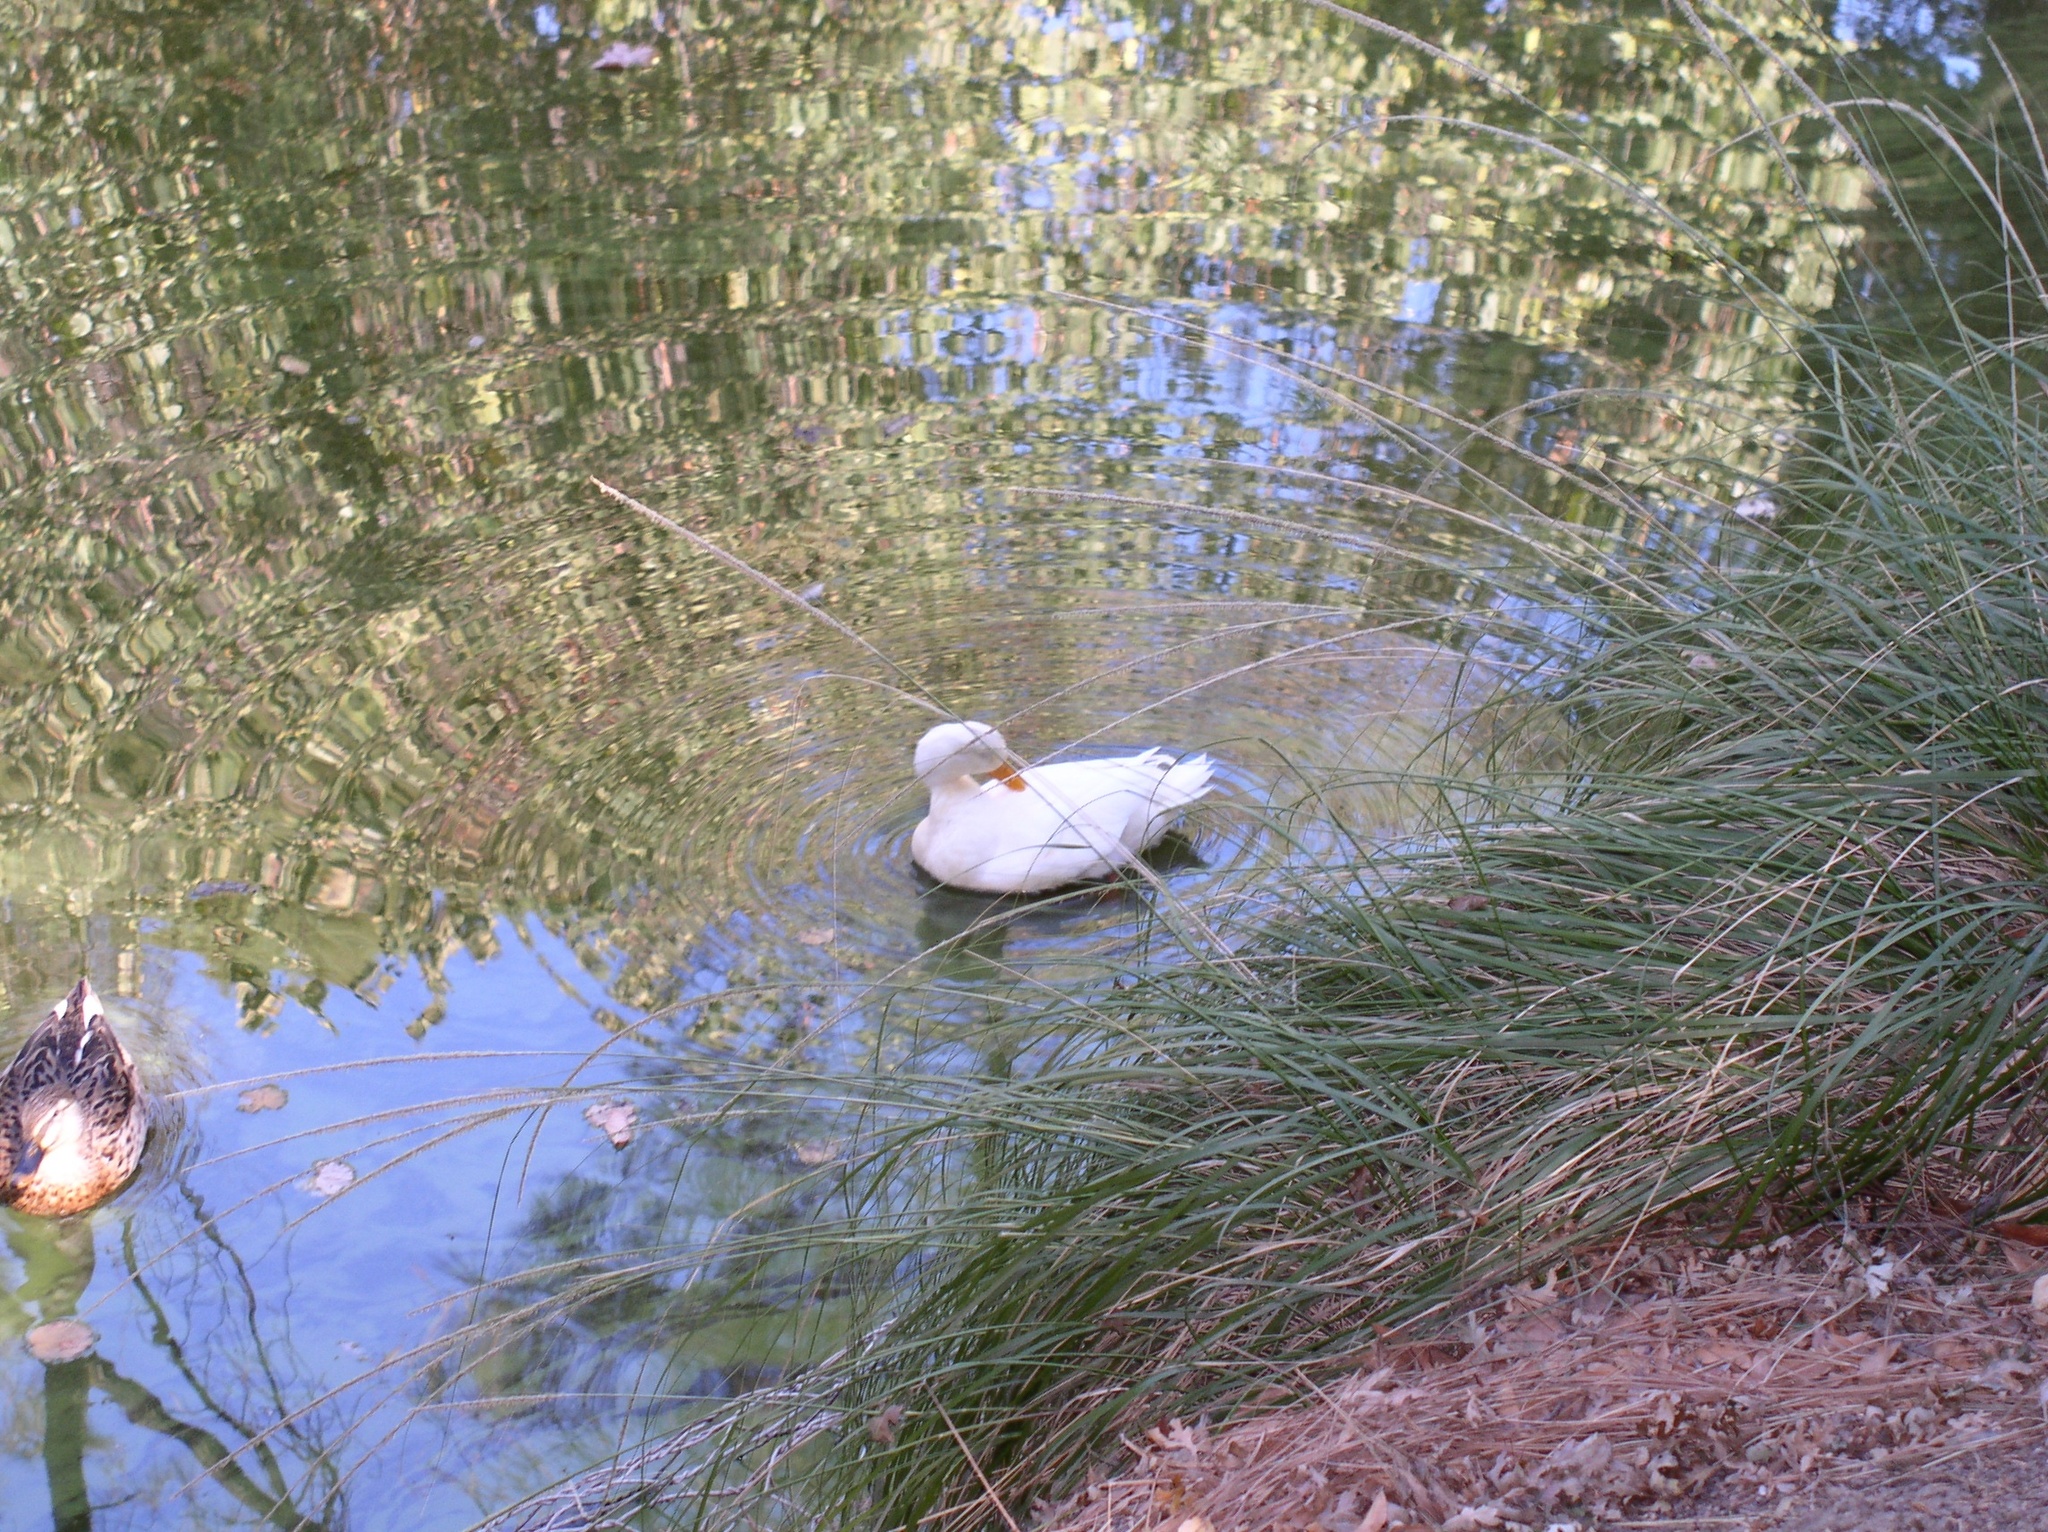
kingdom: Animalia
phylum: Chordata
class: Aves
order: Anseriformes
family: Anatidae
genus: Anas
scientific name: Anas platyrhynchos
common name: Mallard
